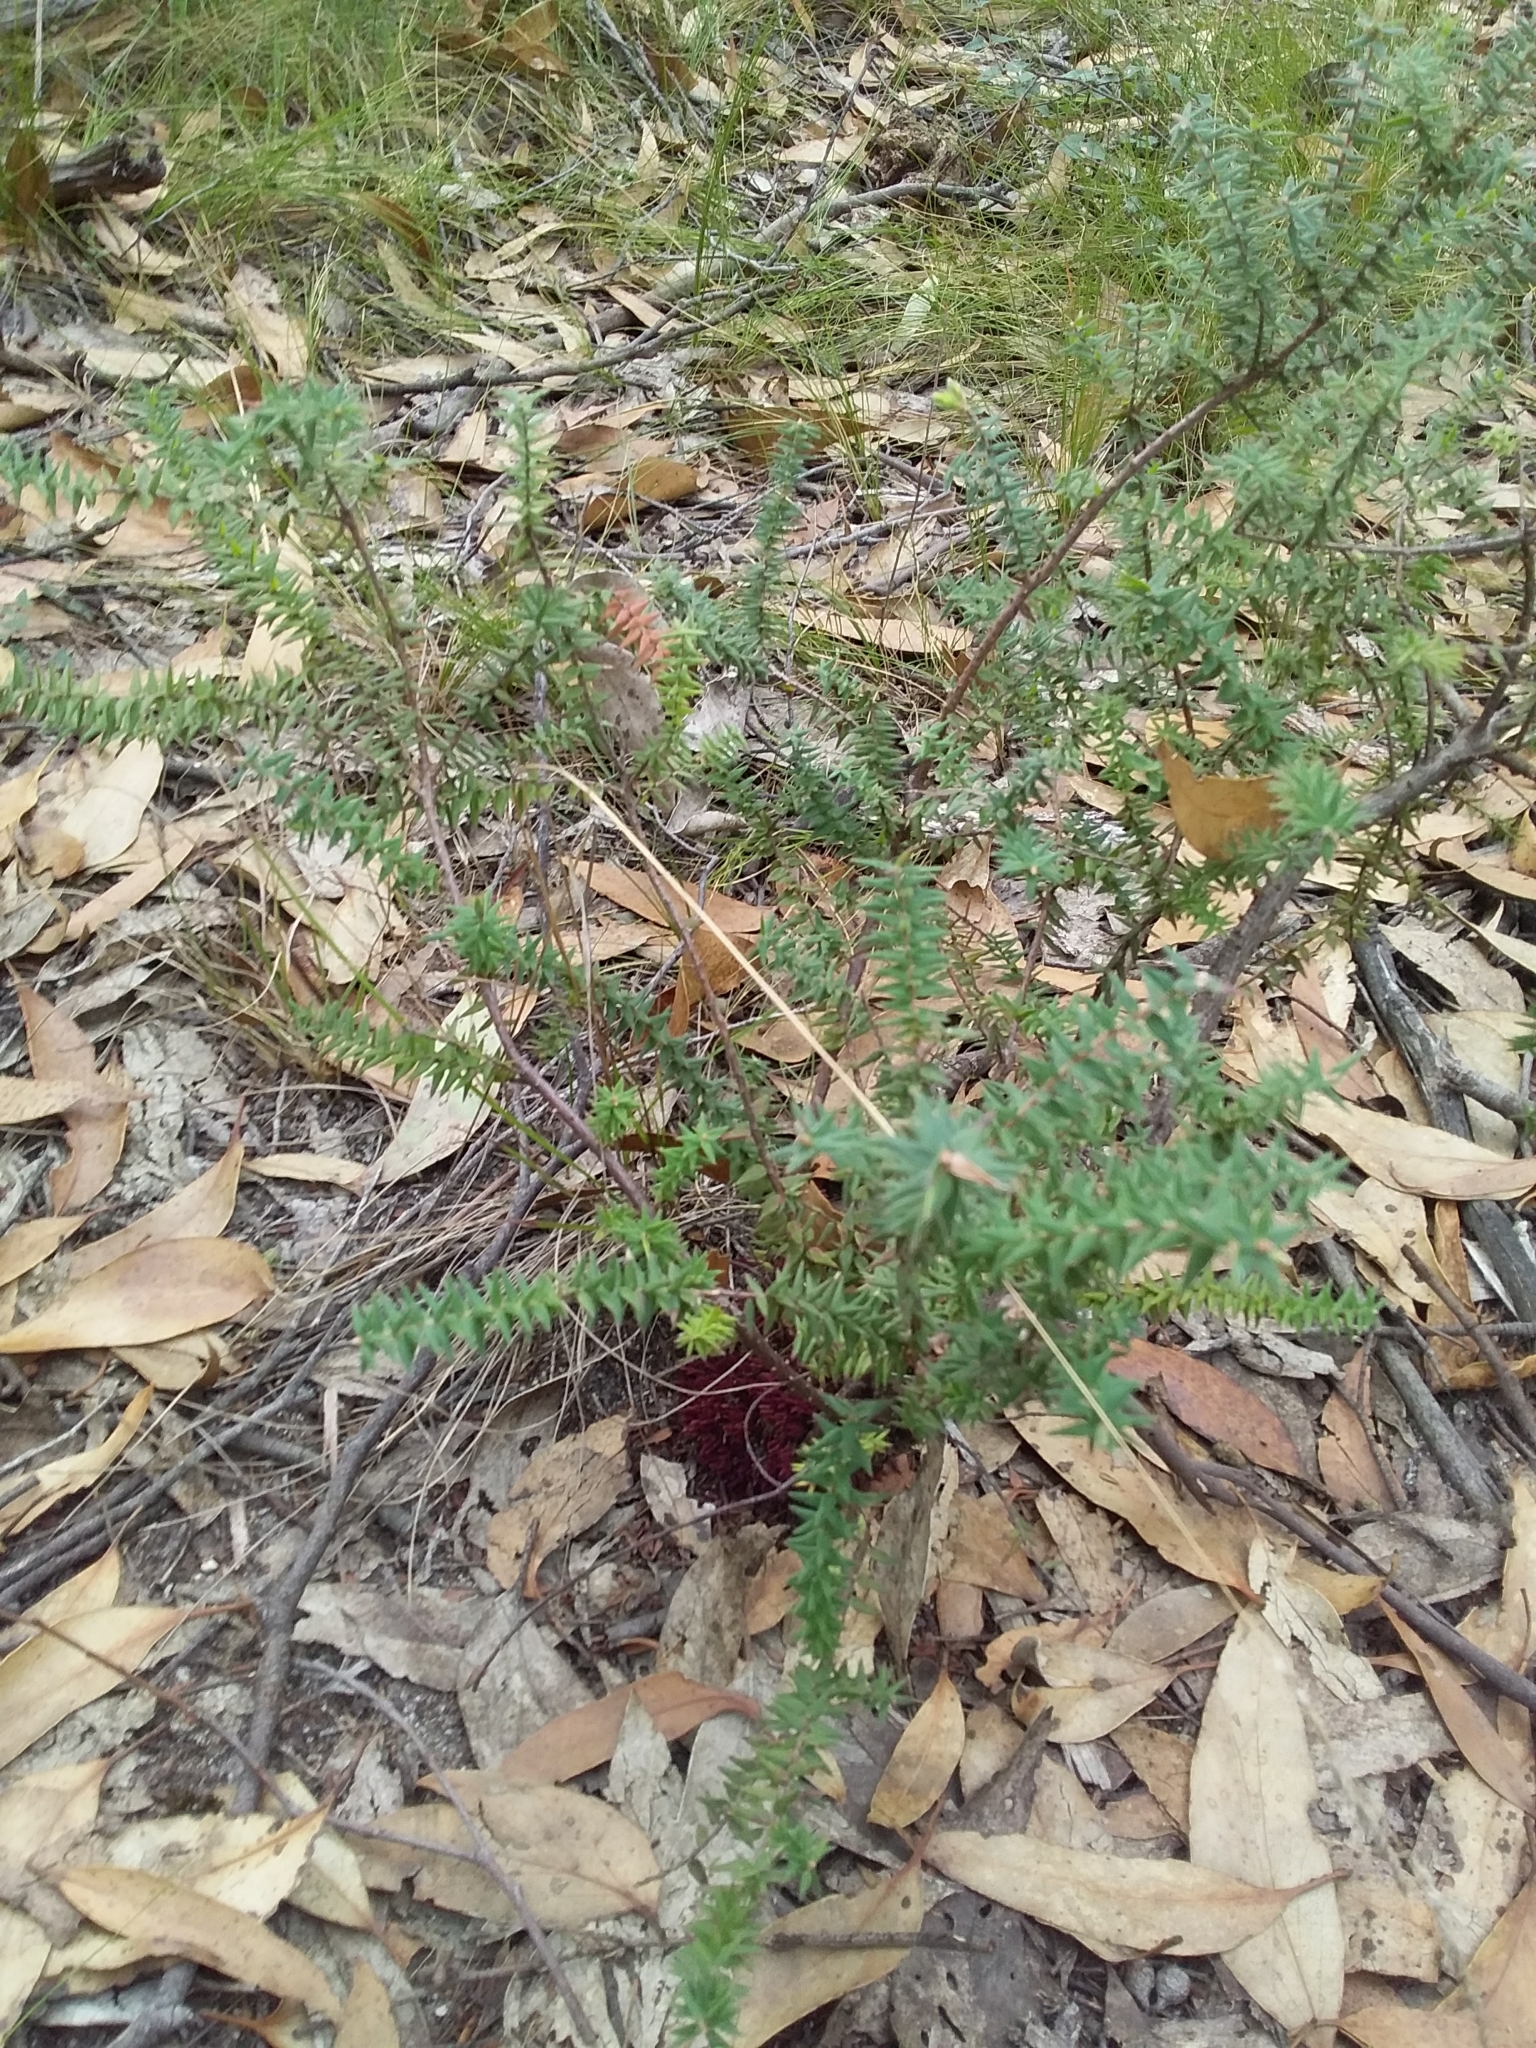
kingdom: Plantae
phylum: Tracheophyta
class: Magnoliopsida
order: Ericales
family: Ericaceae
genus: Acrotriche
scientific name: Acrotriche fasciculiflora
